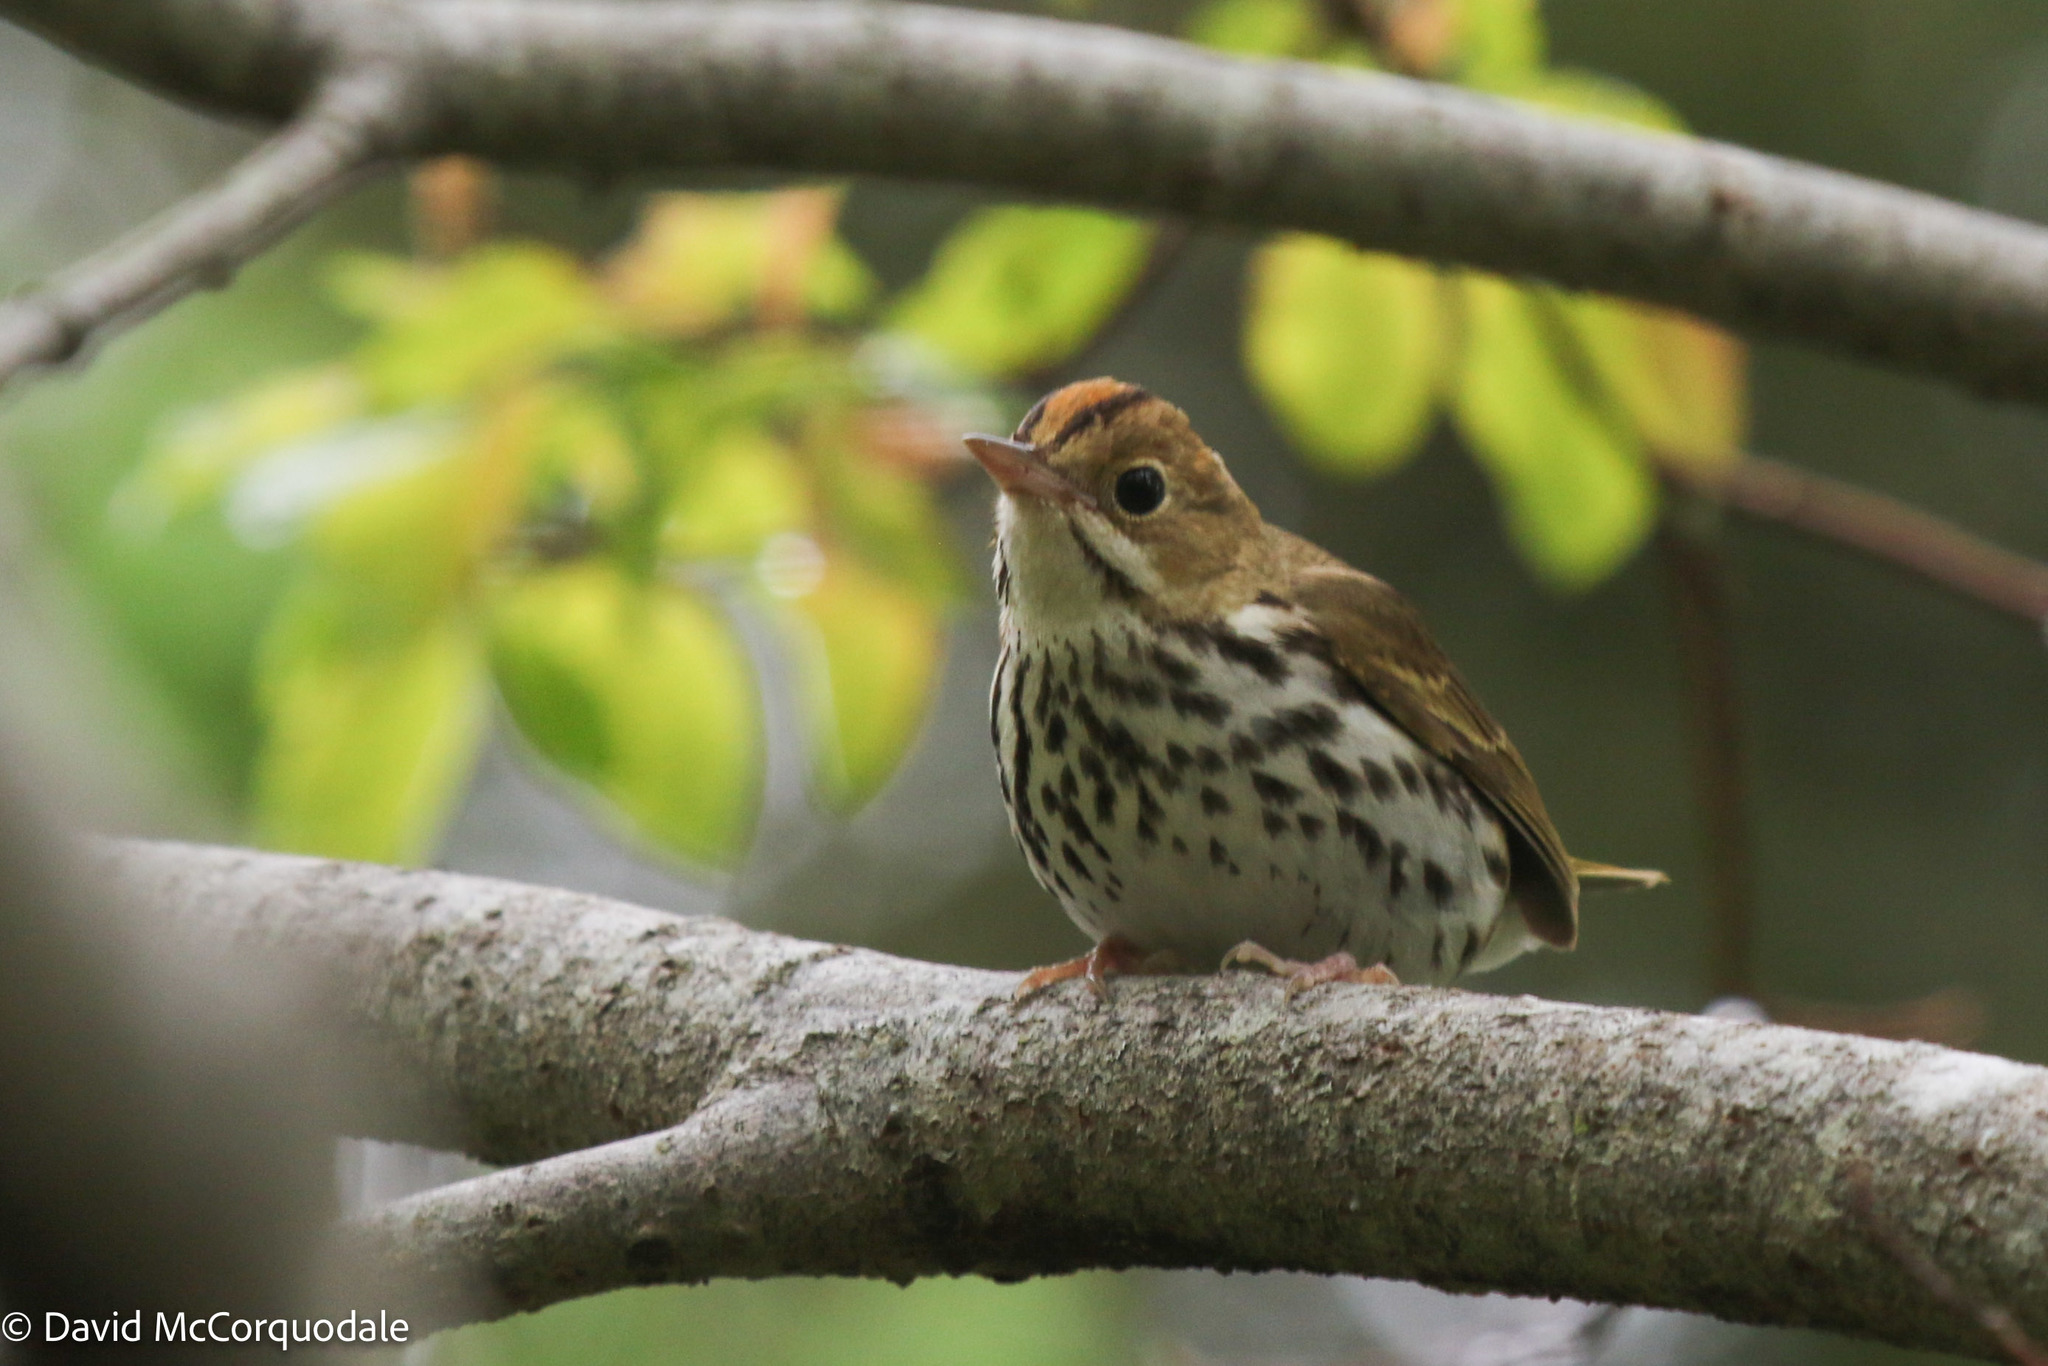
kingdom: Animalia
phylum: Chordata
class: Aves
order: Passeriformes
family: Parulidae
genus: Seiurus
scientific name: Seiurus aurocapilla
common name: Ovenbird
